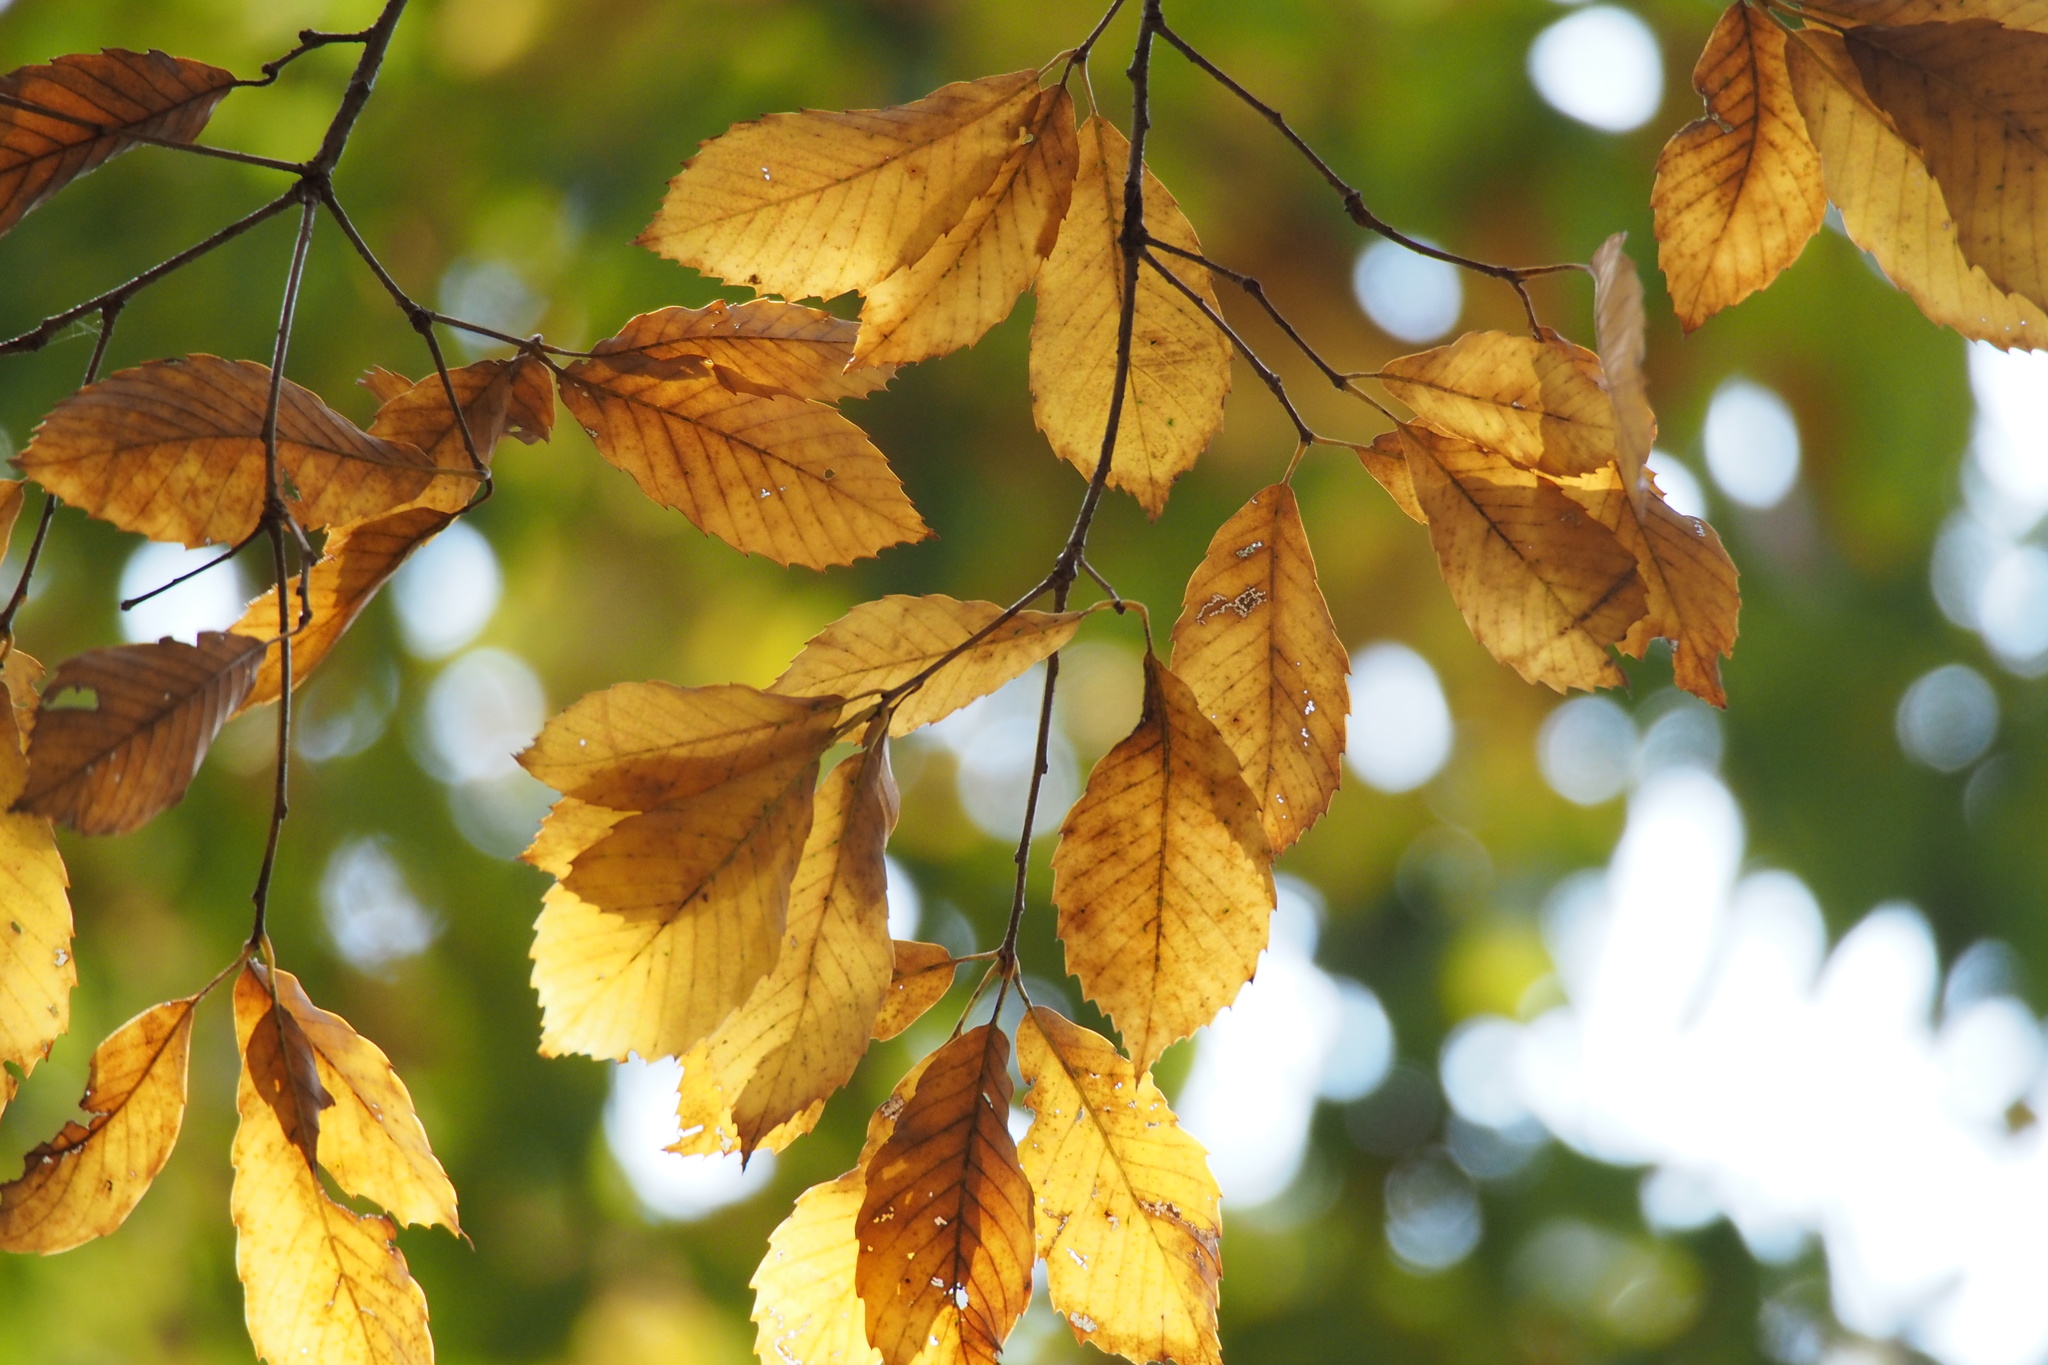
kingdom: Plantae
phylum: Tracheophyta
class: Magnoliopsida
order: Fagales
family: Fagaceae
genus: Quercus
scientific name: Quercus serrata
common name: Bao li
